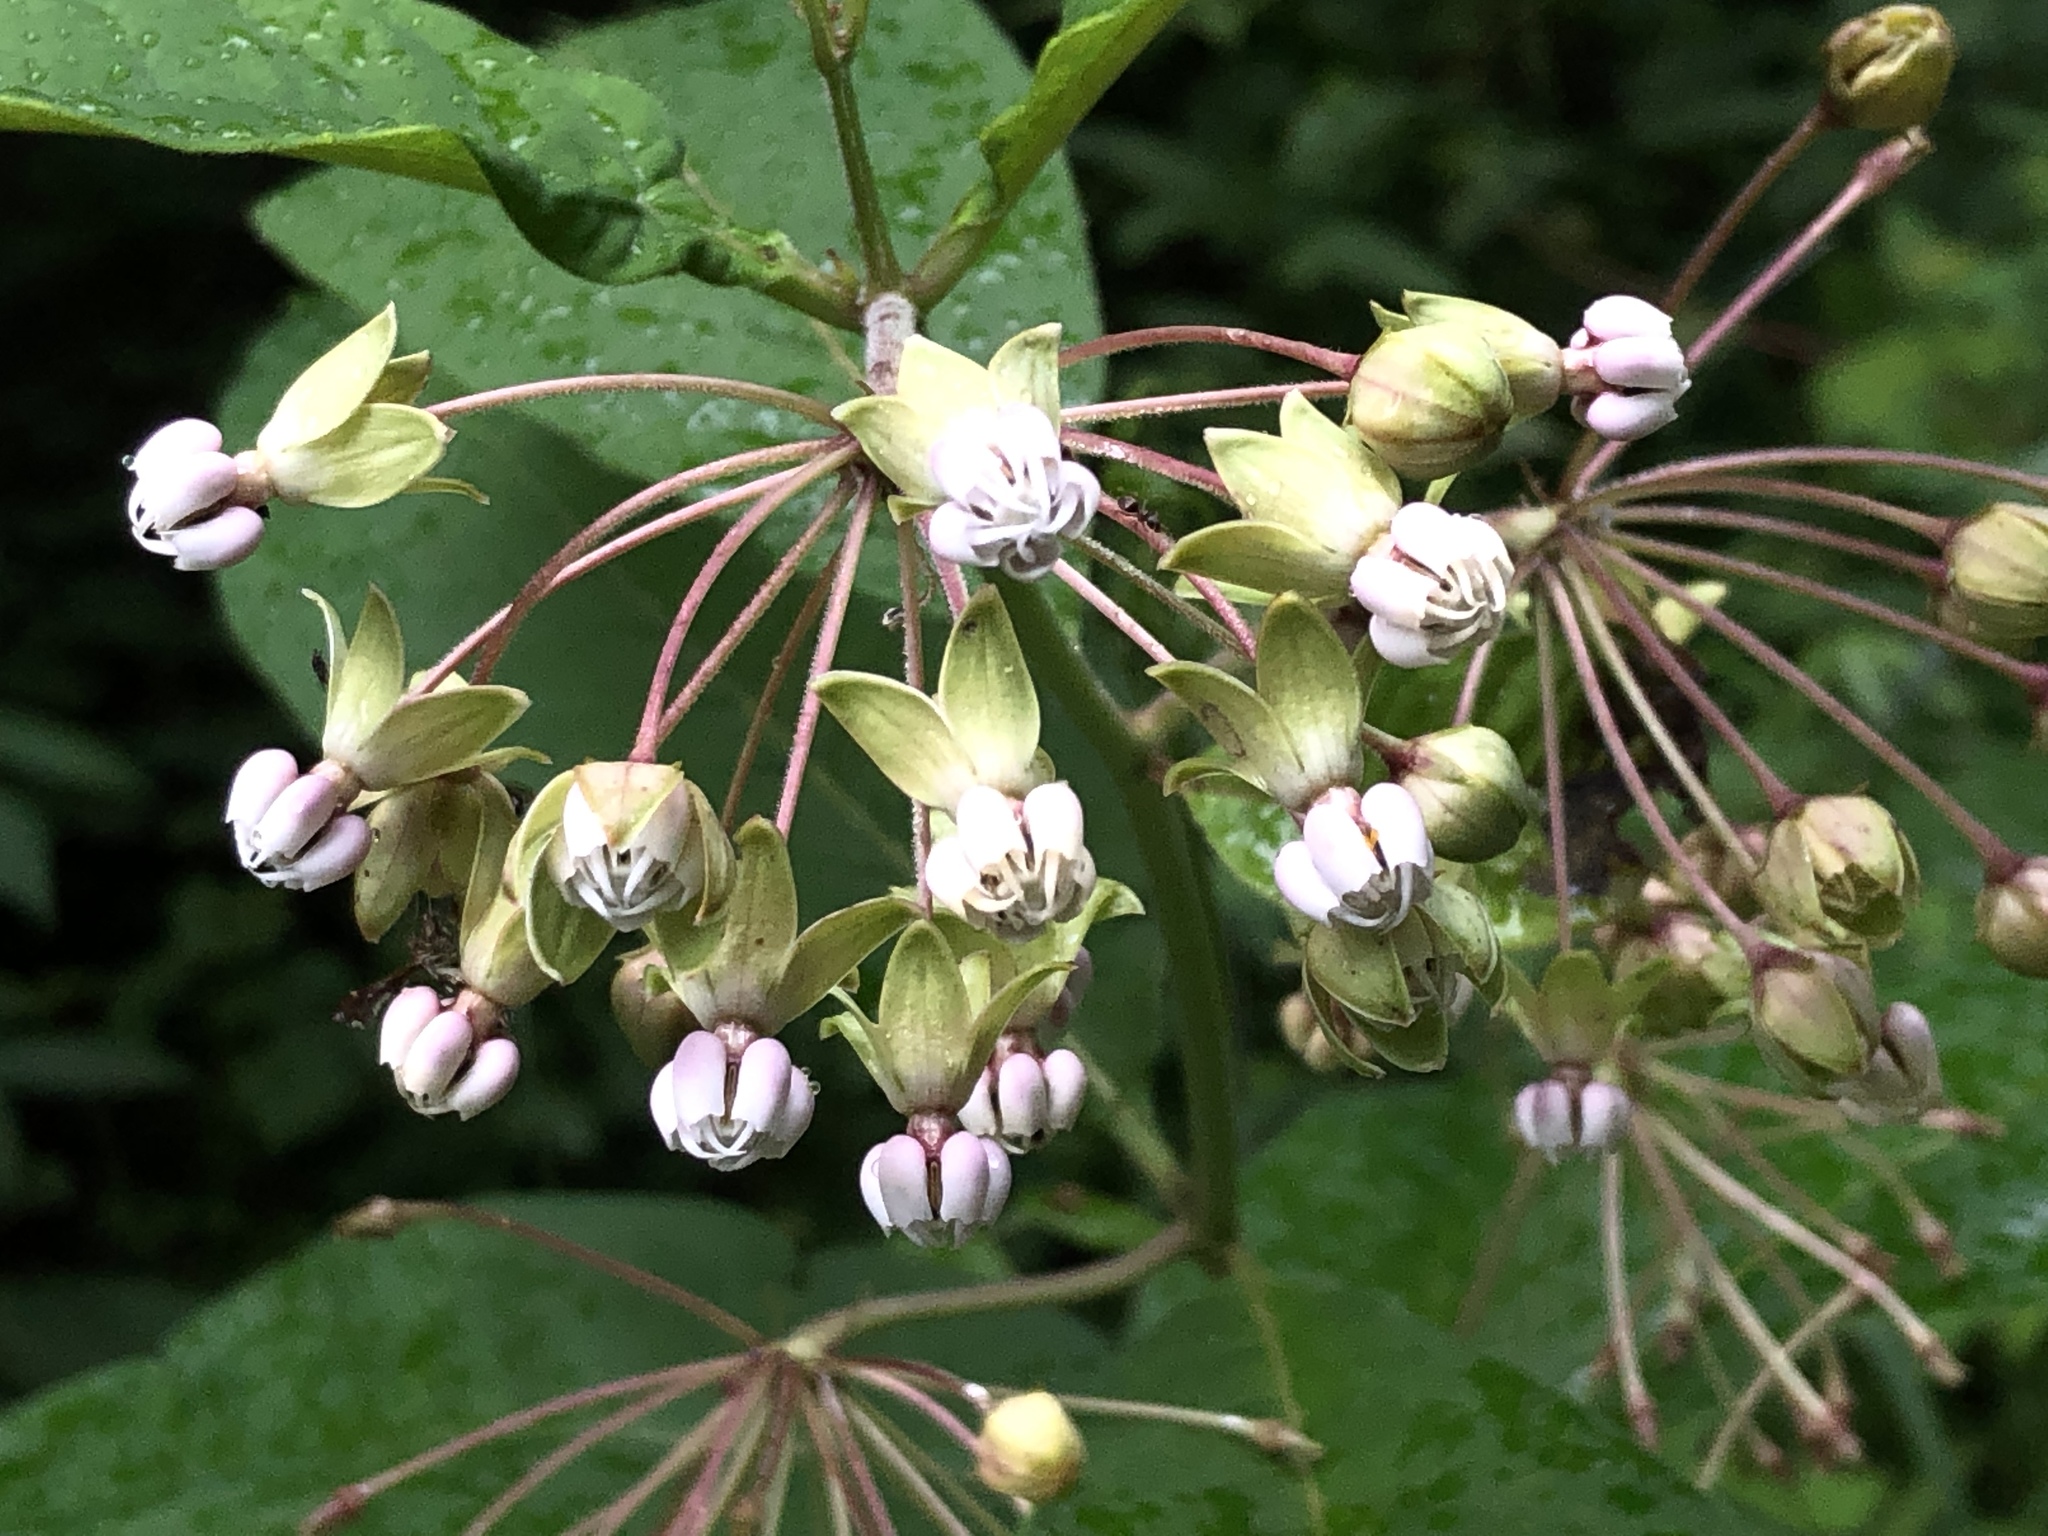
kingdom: Plantae
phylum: Tracheophyta
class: Magnoliopsida
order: Gentianales
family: Apocynaceae
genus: Asclepias
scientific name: Asclepias exaltata
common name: Poke milkweed
